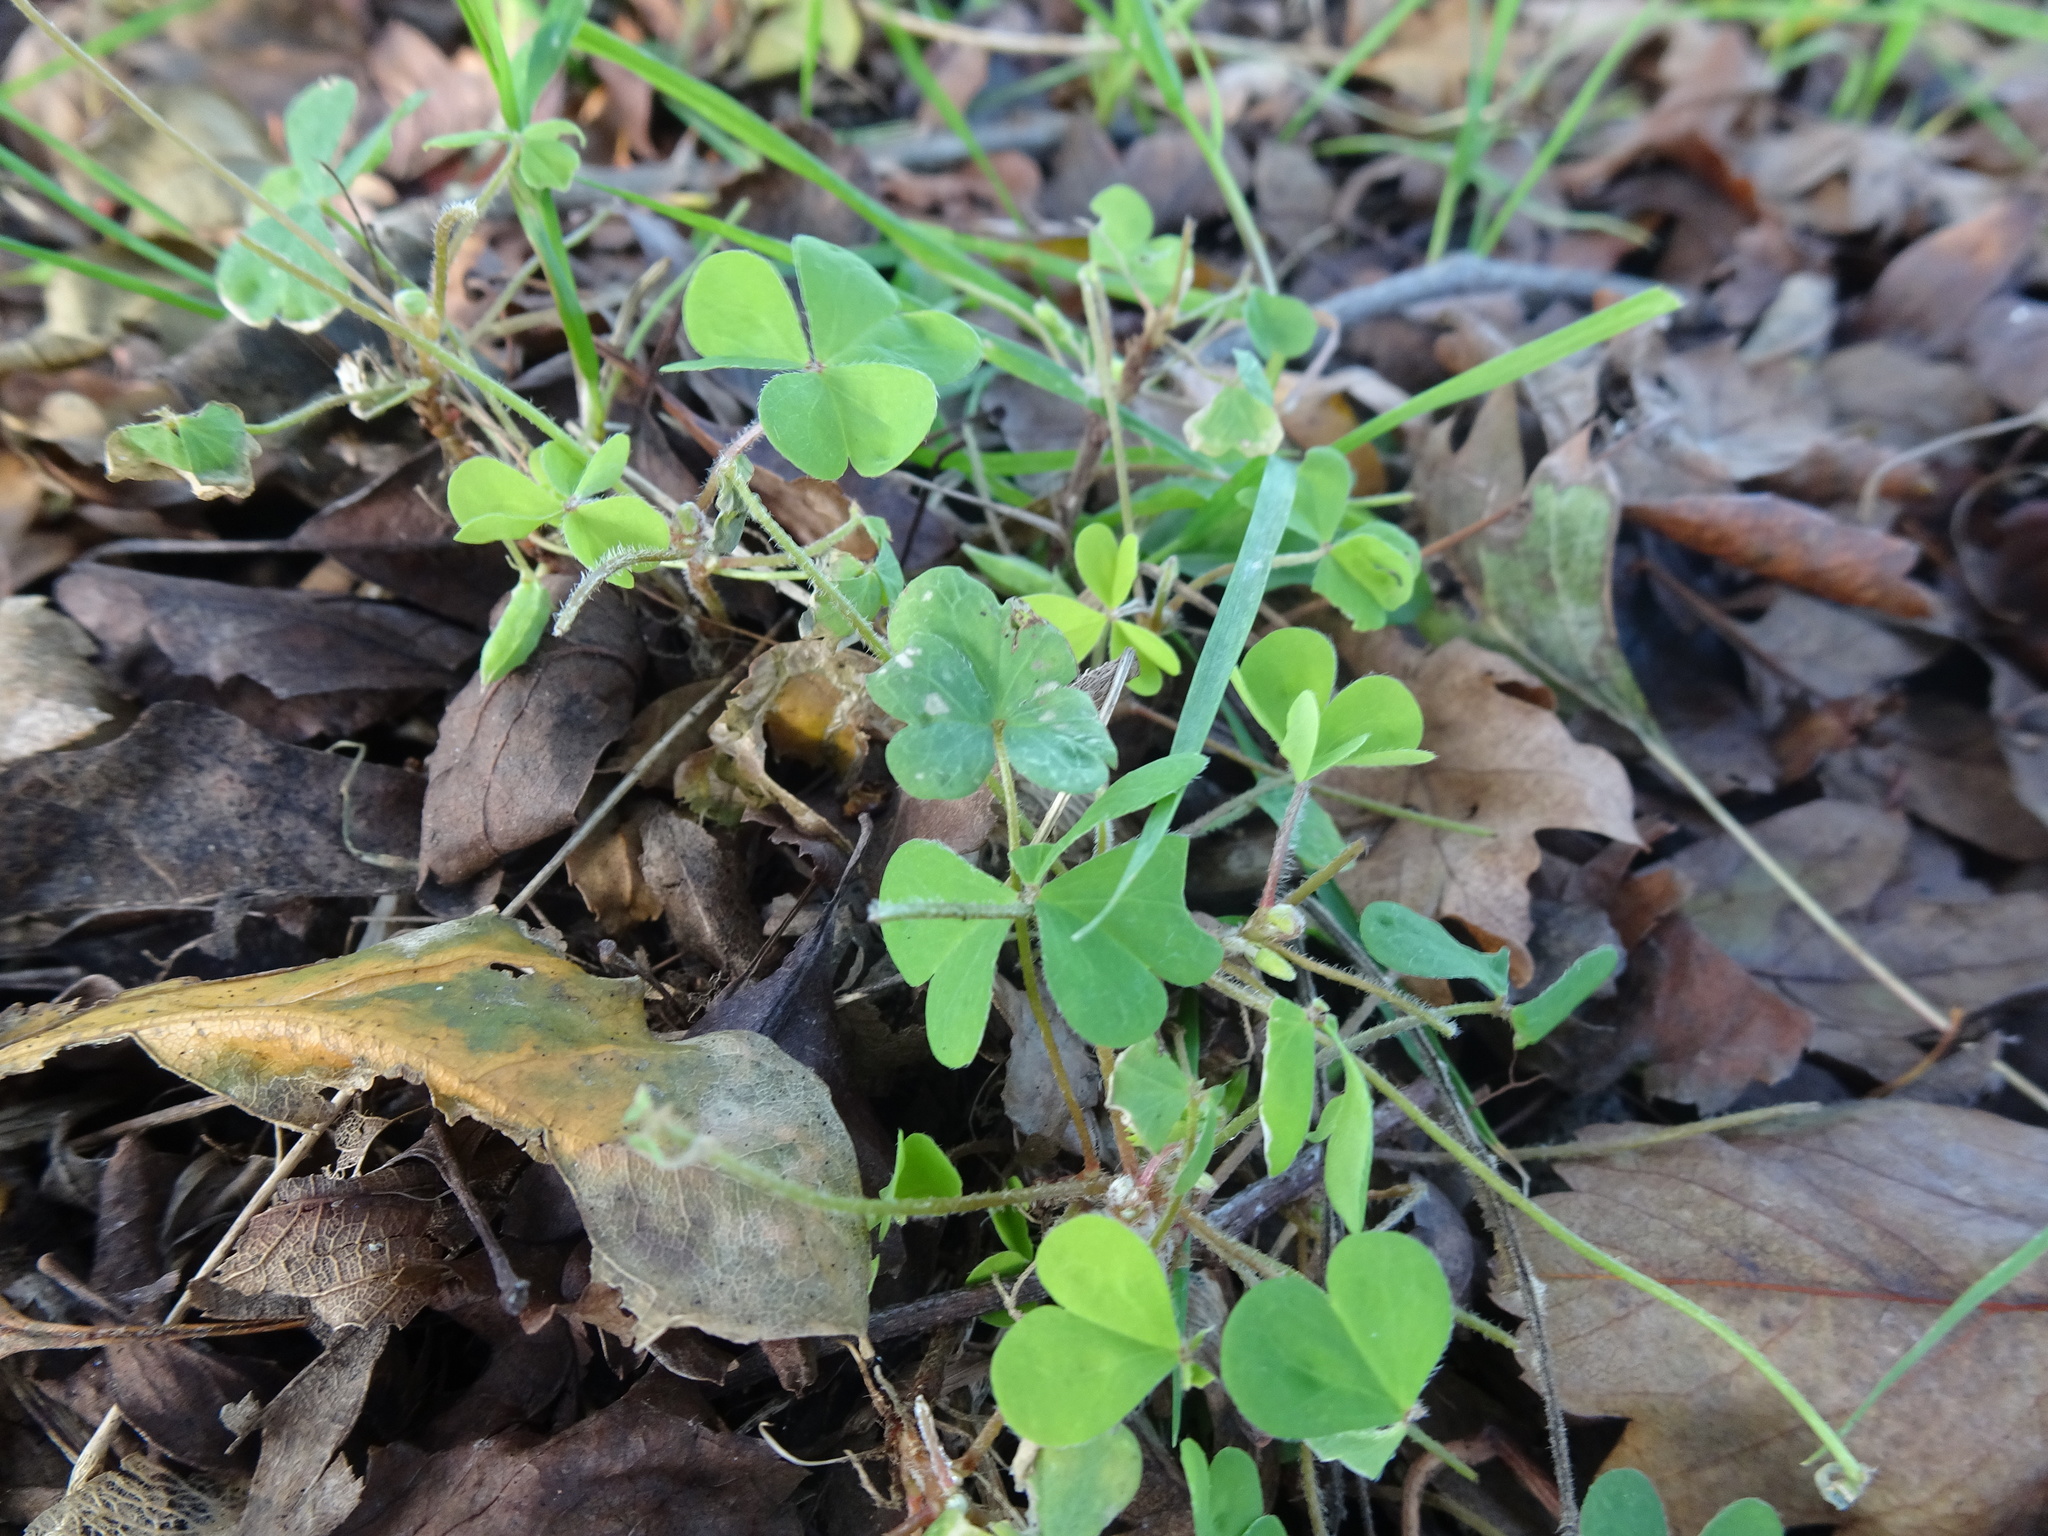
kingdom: Plantae
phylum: Tracheophyta
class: Magnoliopsida
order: Oxalidales
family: Oxalidaceae
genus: Oxalis
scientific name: Oxalis stricta
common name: Upright yellow-sorrel
